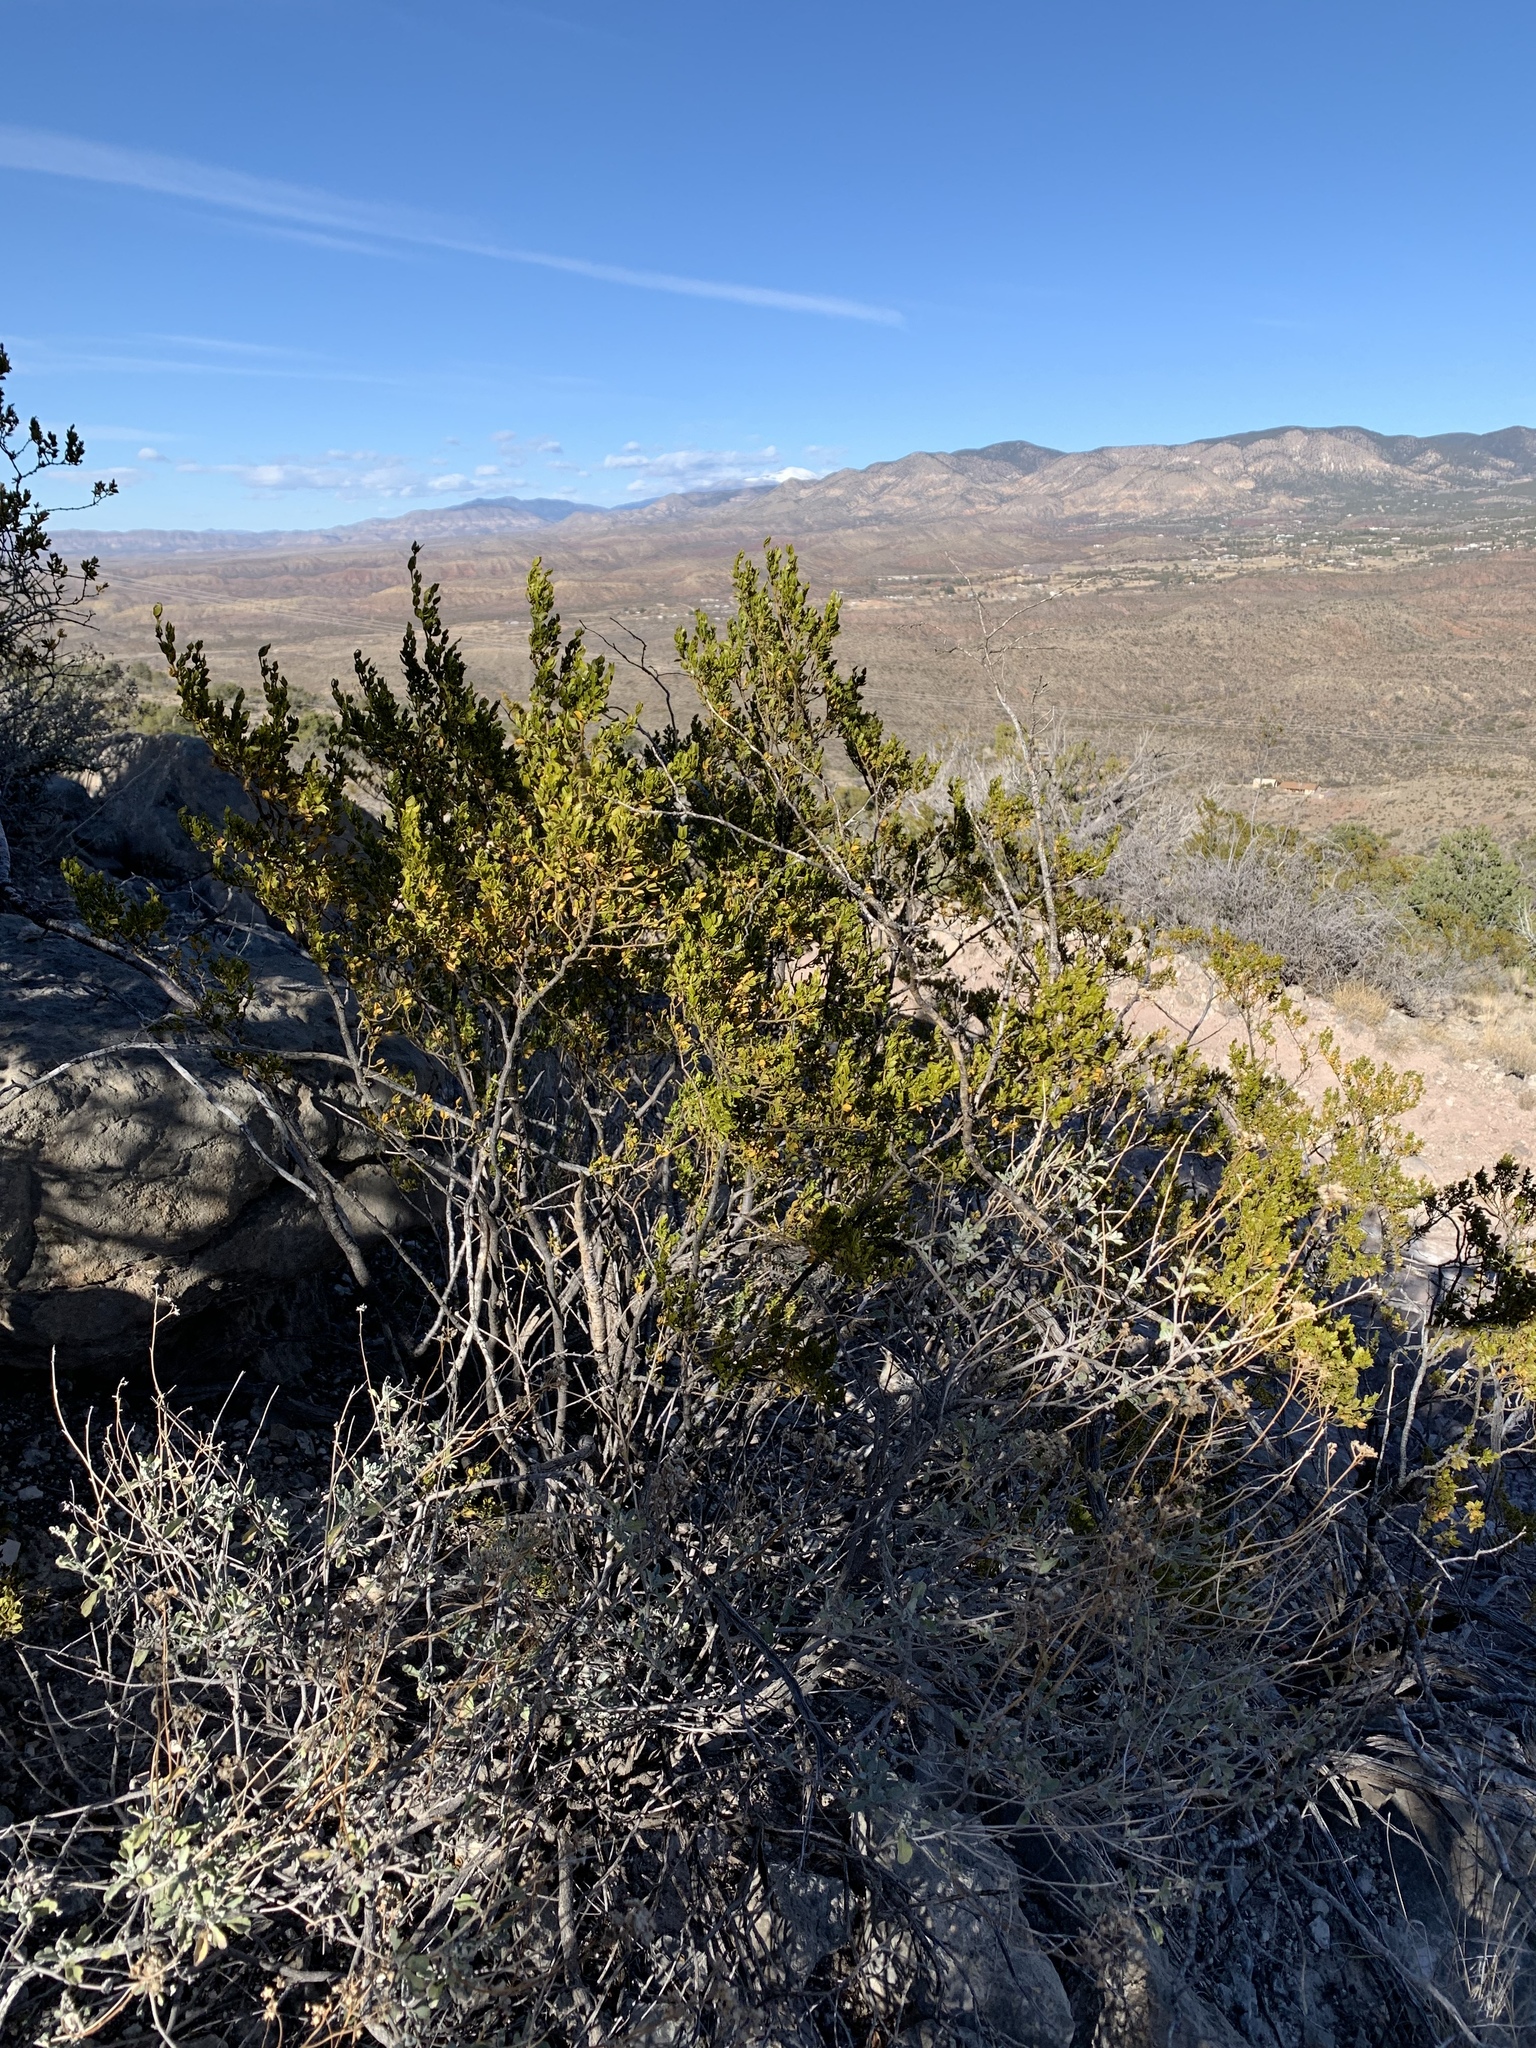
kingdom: Plantae
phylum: Tracheophyta
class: Magnoliopsida
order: Zygophyllales
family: Zygophyllaceae
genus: Larrea
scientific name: Larrea tridentata
